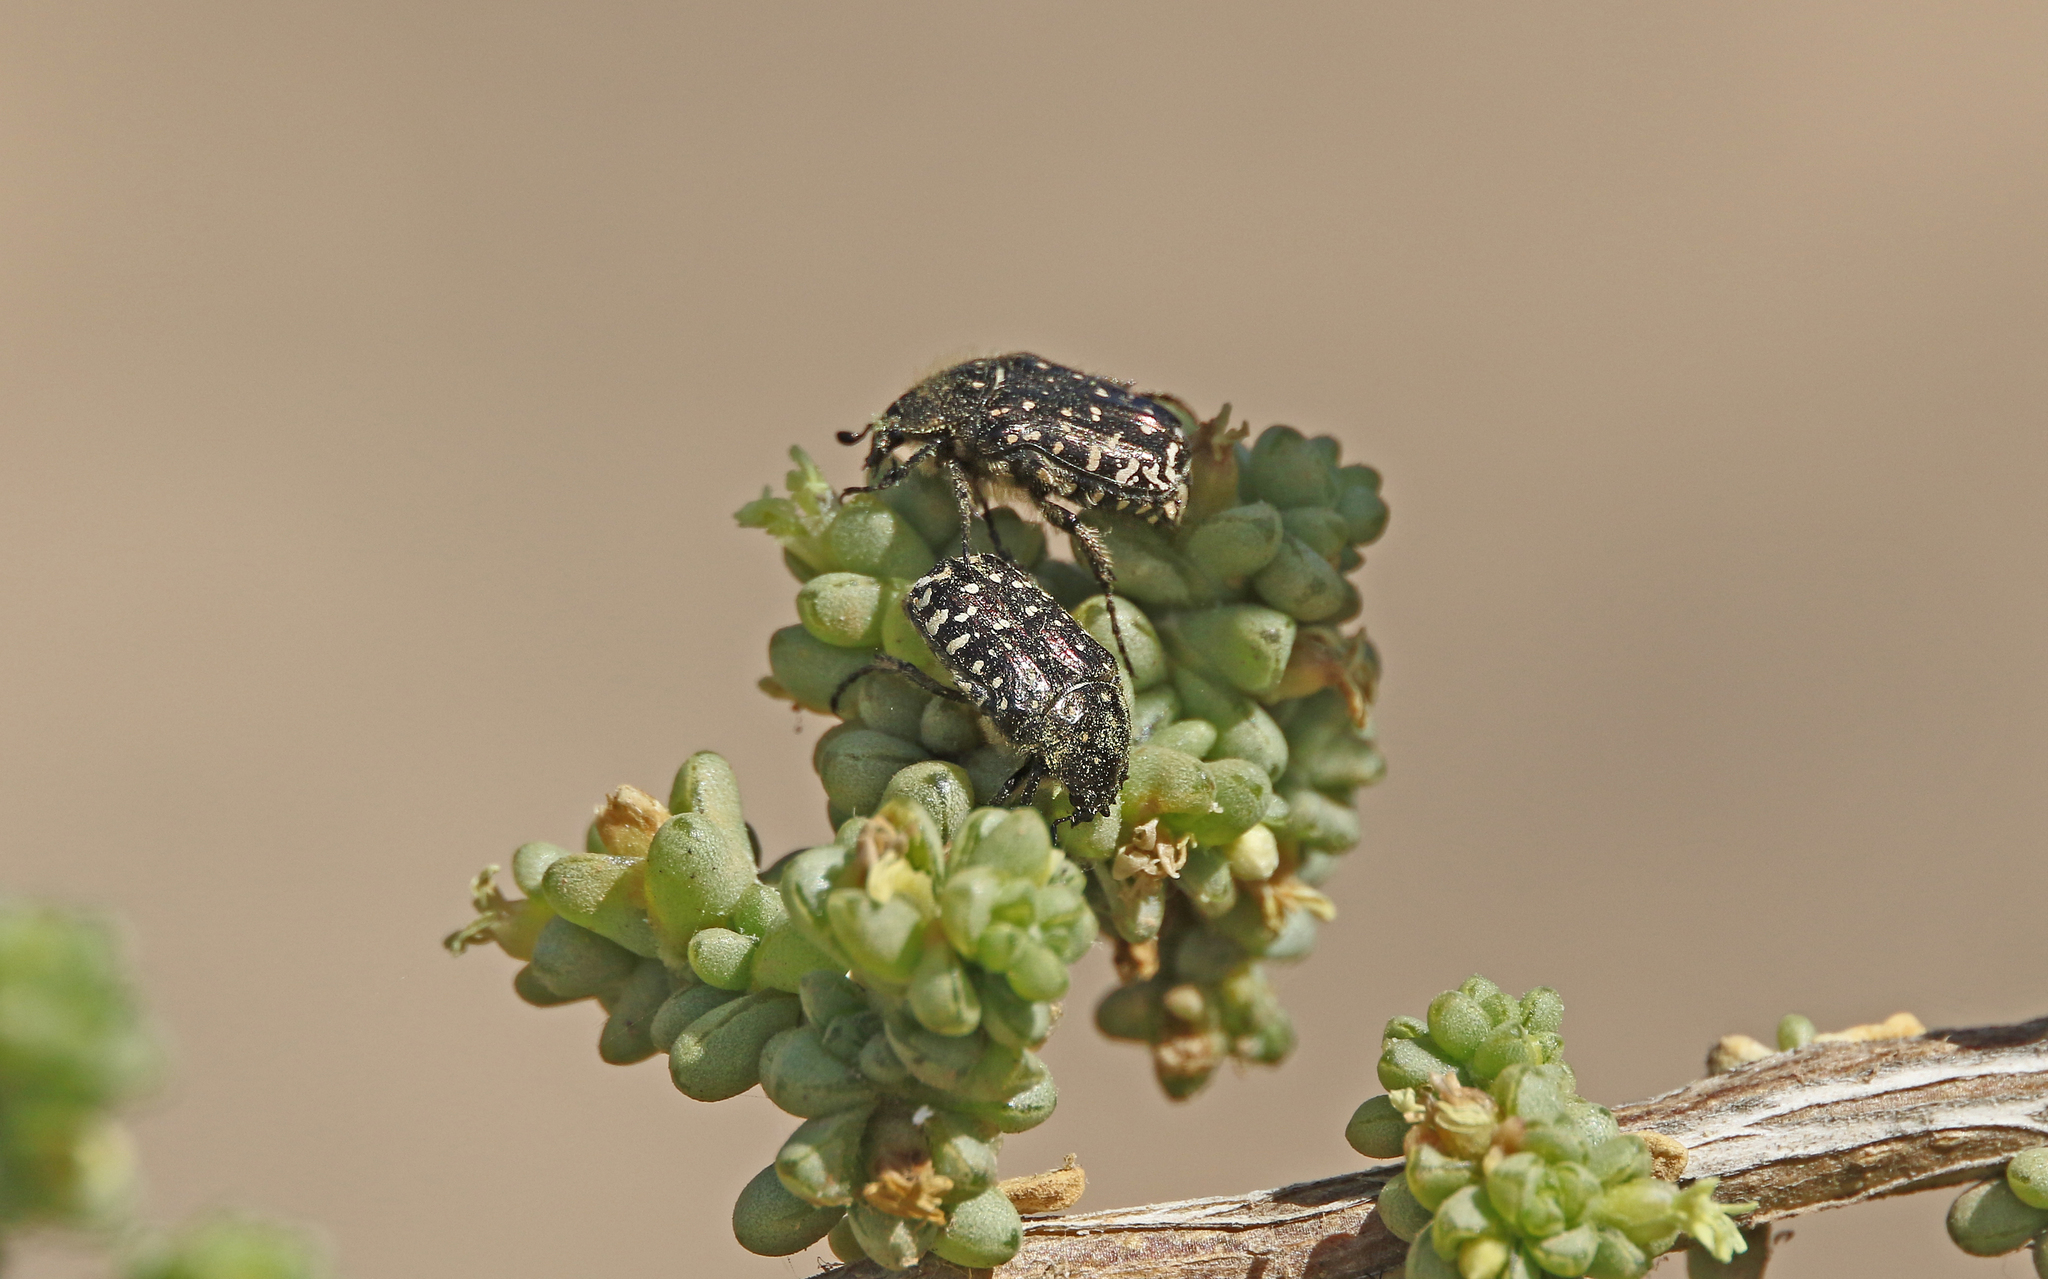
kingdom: Animalia
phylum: Arthropoda
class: Insecta
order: Coleoptera
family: Scarabaeidae
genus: Oxythyrea
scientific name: Oxythyrea funesta
